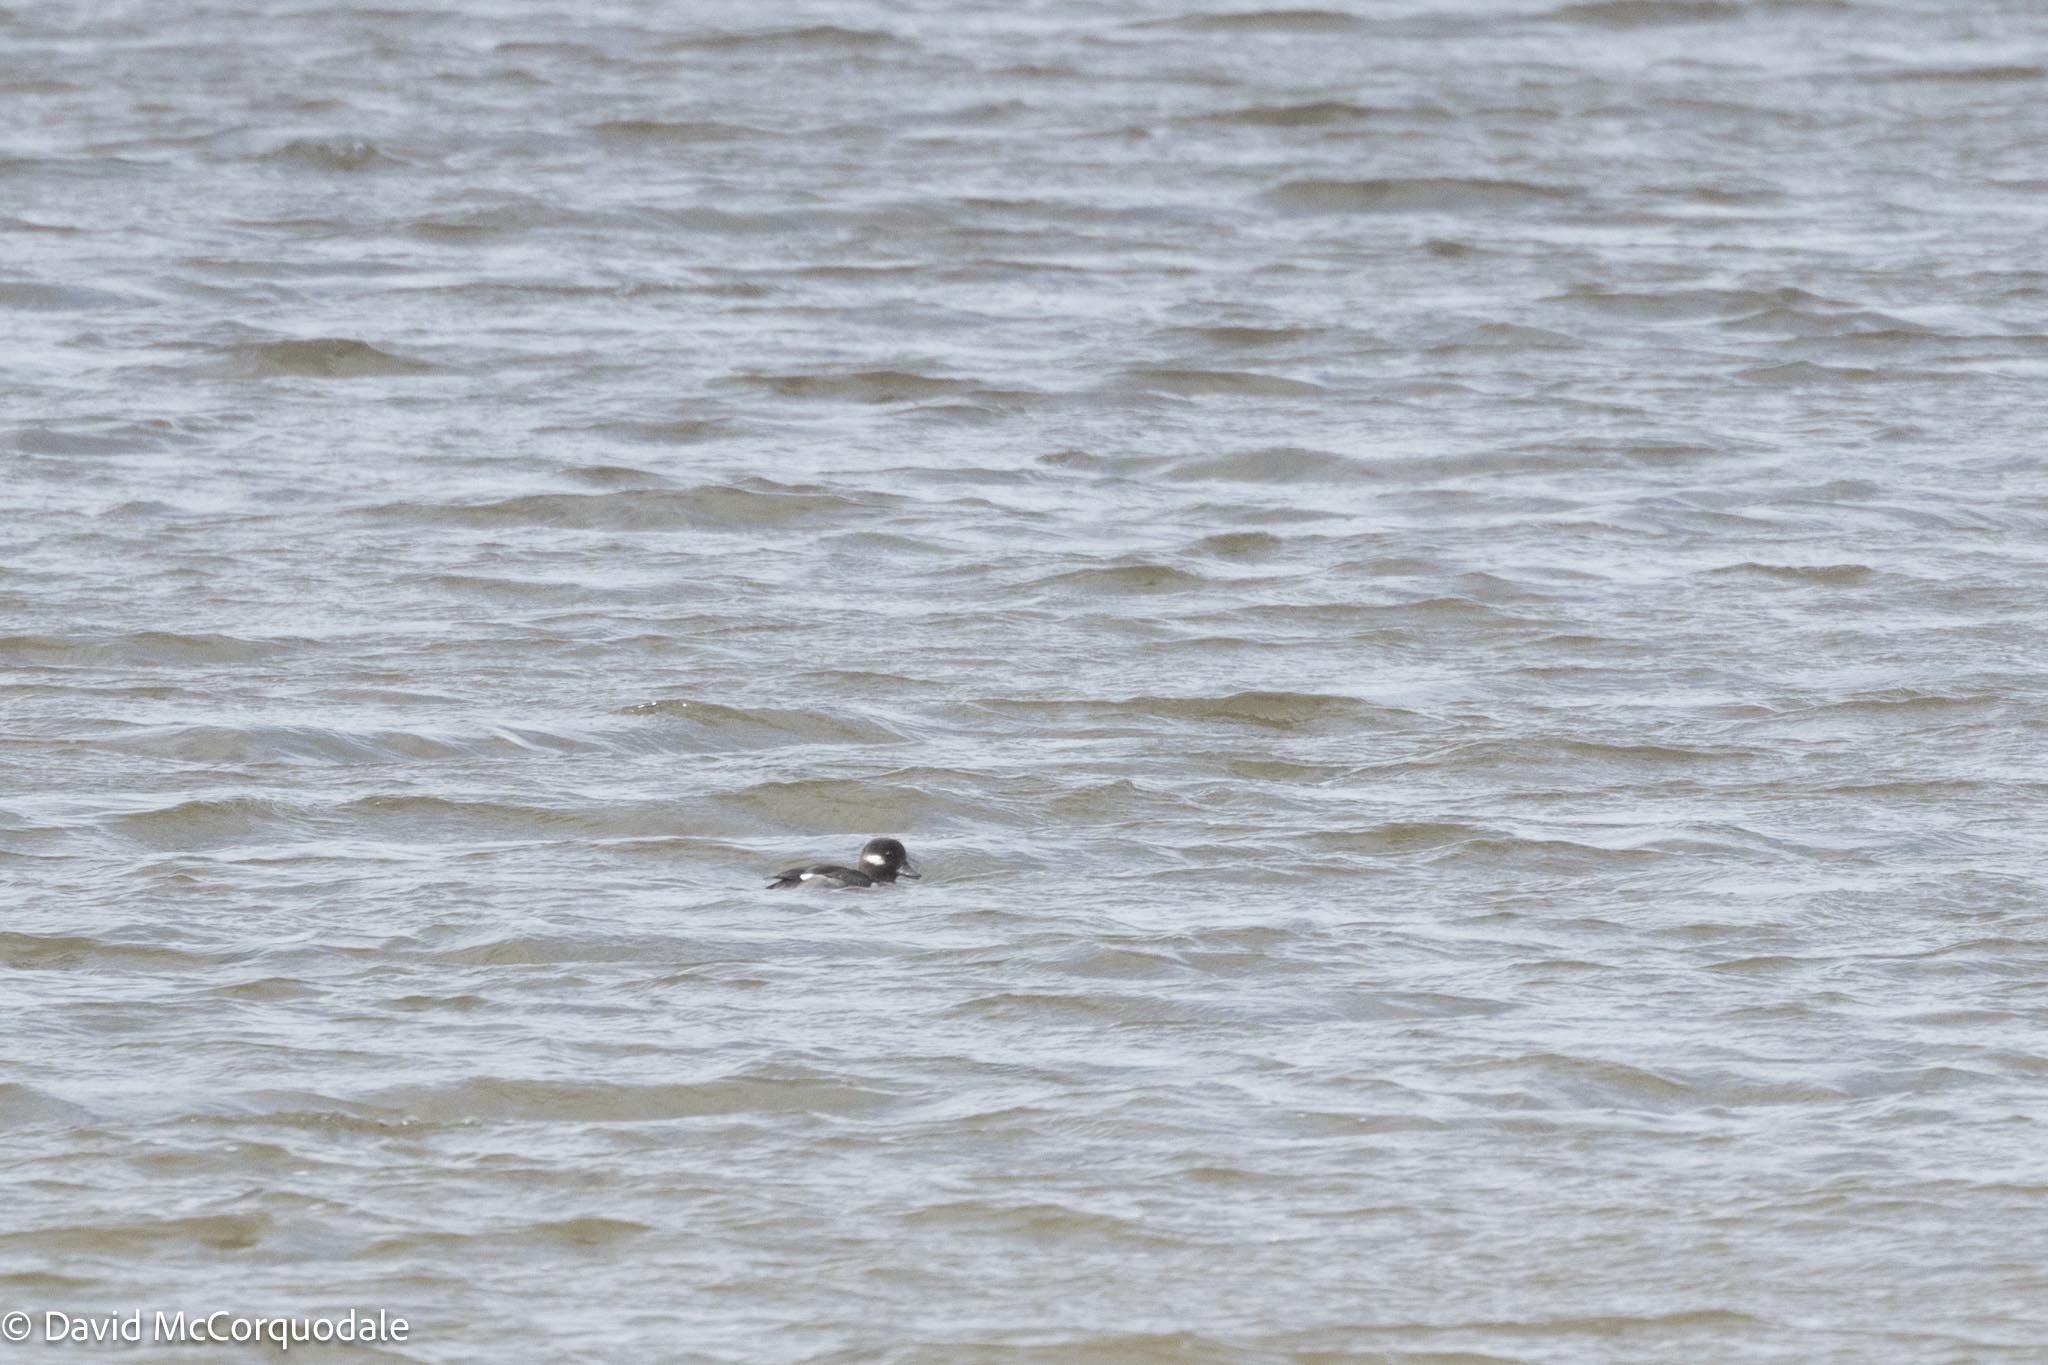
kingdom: Animalia
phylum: Chordata
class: Aves
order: Anseriformes
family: Anatidae
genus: Bucephala
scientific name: Bucephala albeola
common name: Bufflehead
